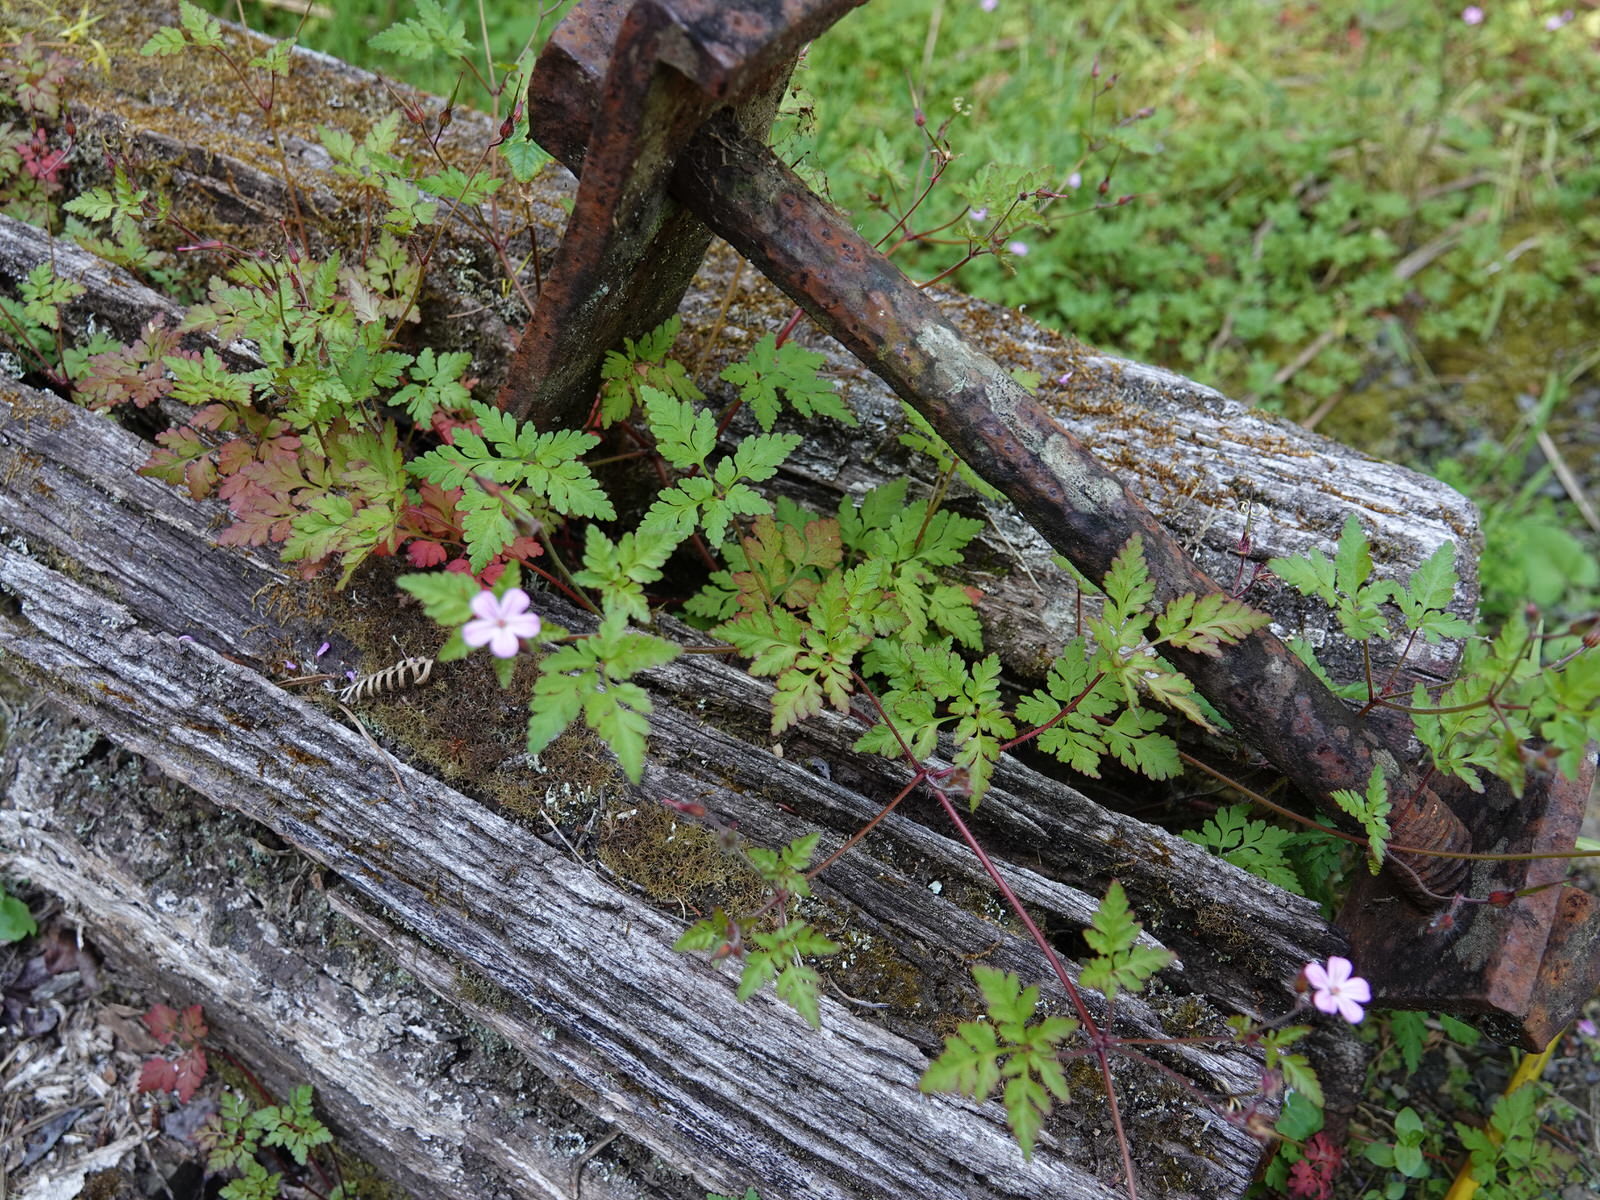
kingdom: Plantae
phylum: Tracheophyta
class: Magnoliopsida
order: Geraniales
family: Geraniaceae
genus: Geranium
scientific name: Geranium robertianum
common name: Herb-robert
